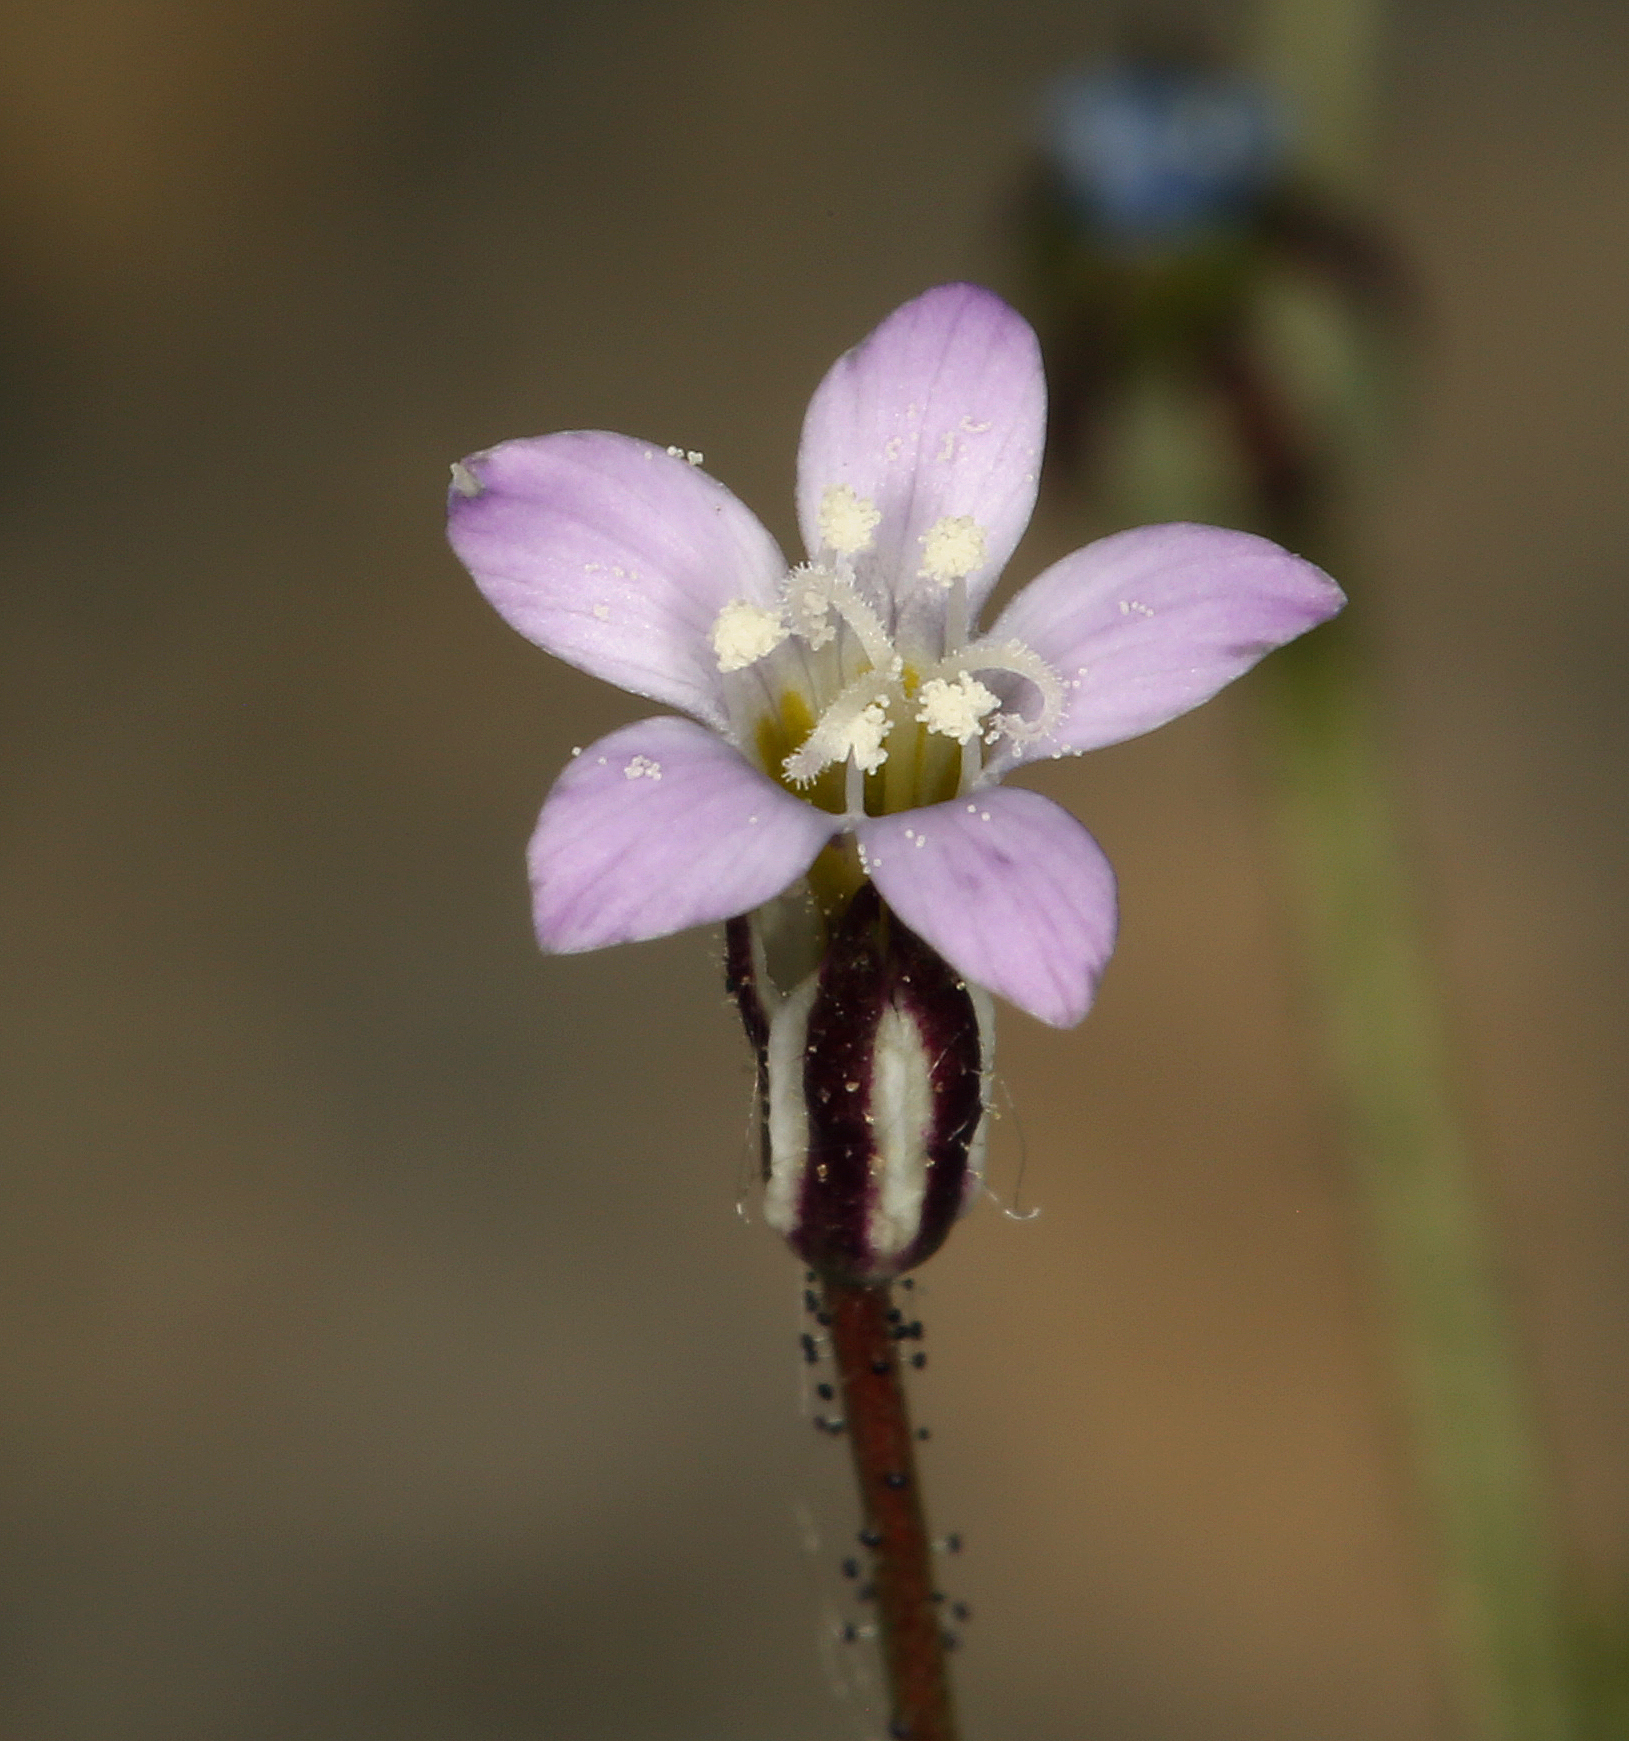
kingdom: Plantae
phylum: Tracheophyta
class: Magnoliopsida
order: Ericales
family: Polemoniaceae
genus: Gilia
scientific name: Gilia transmontana
